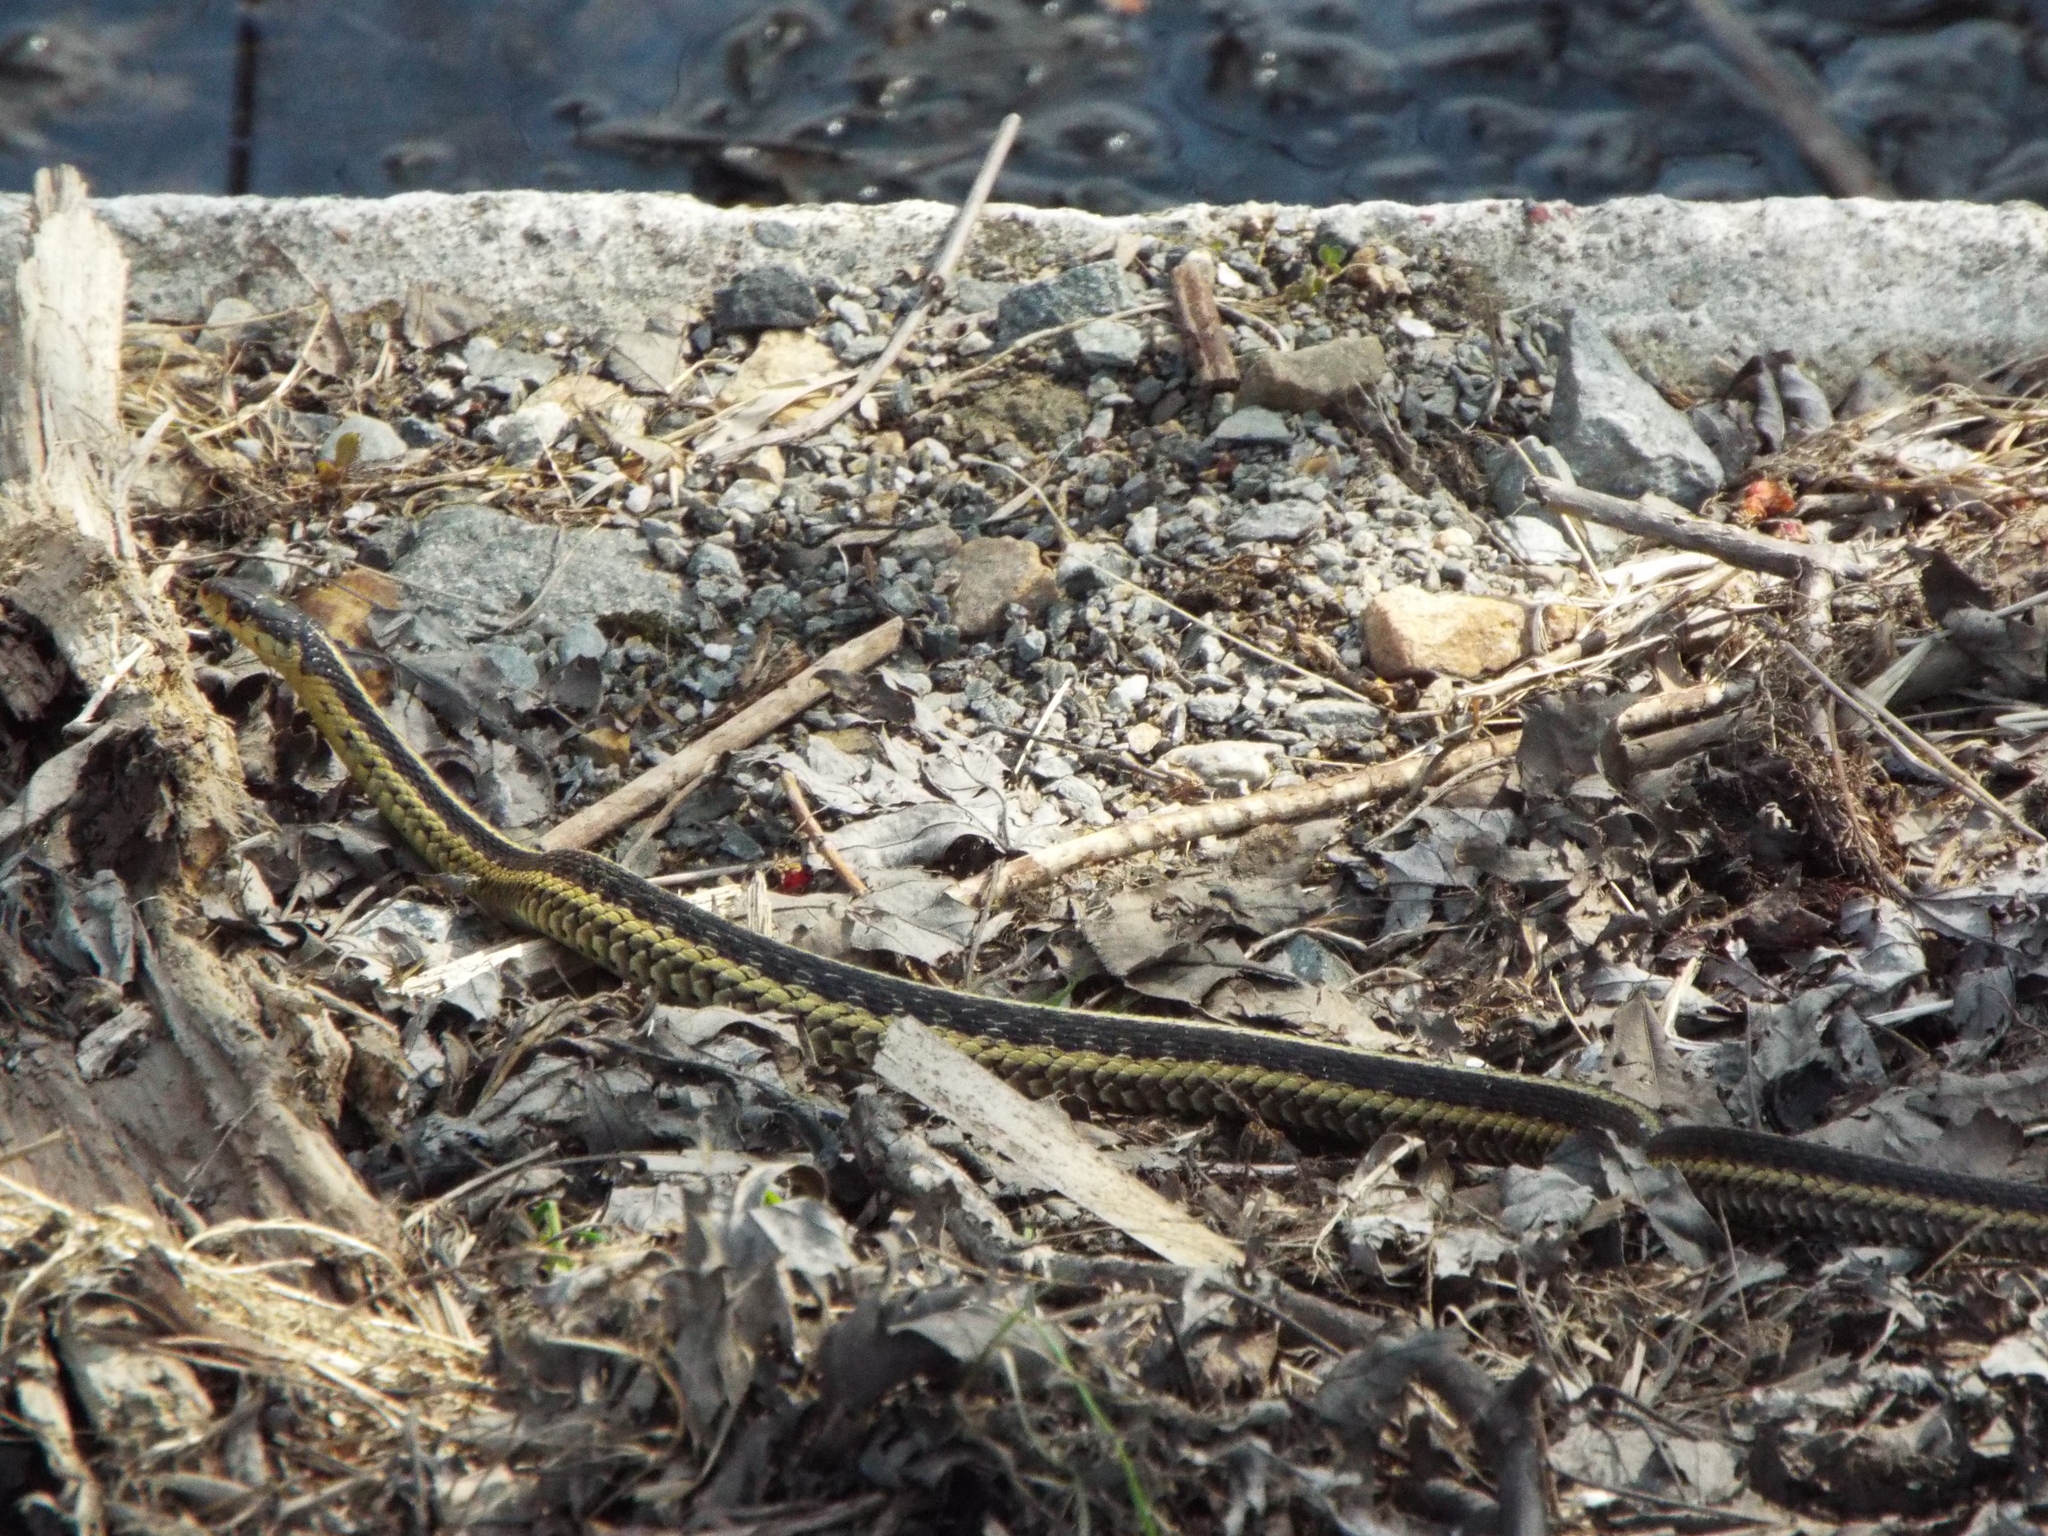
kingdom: Animalia
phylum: Chordata
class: Squamata
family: Colubridae
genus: Thamnophis
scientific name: Thamnophis sirtalis
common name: Common garter snake
